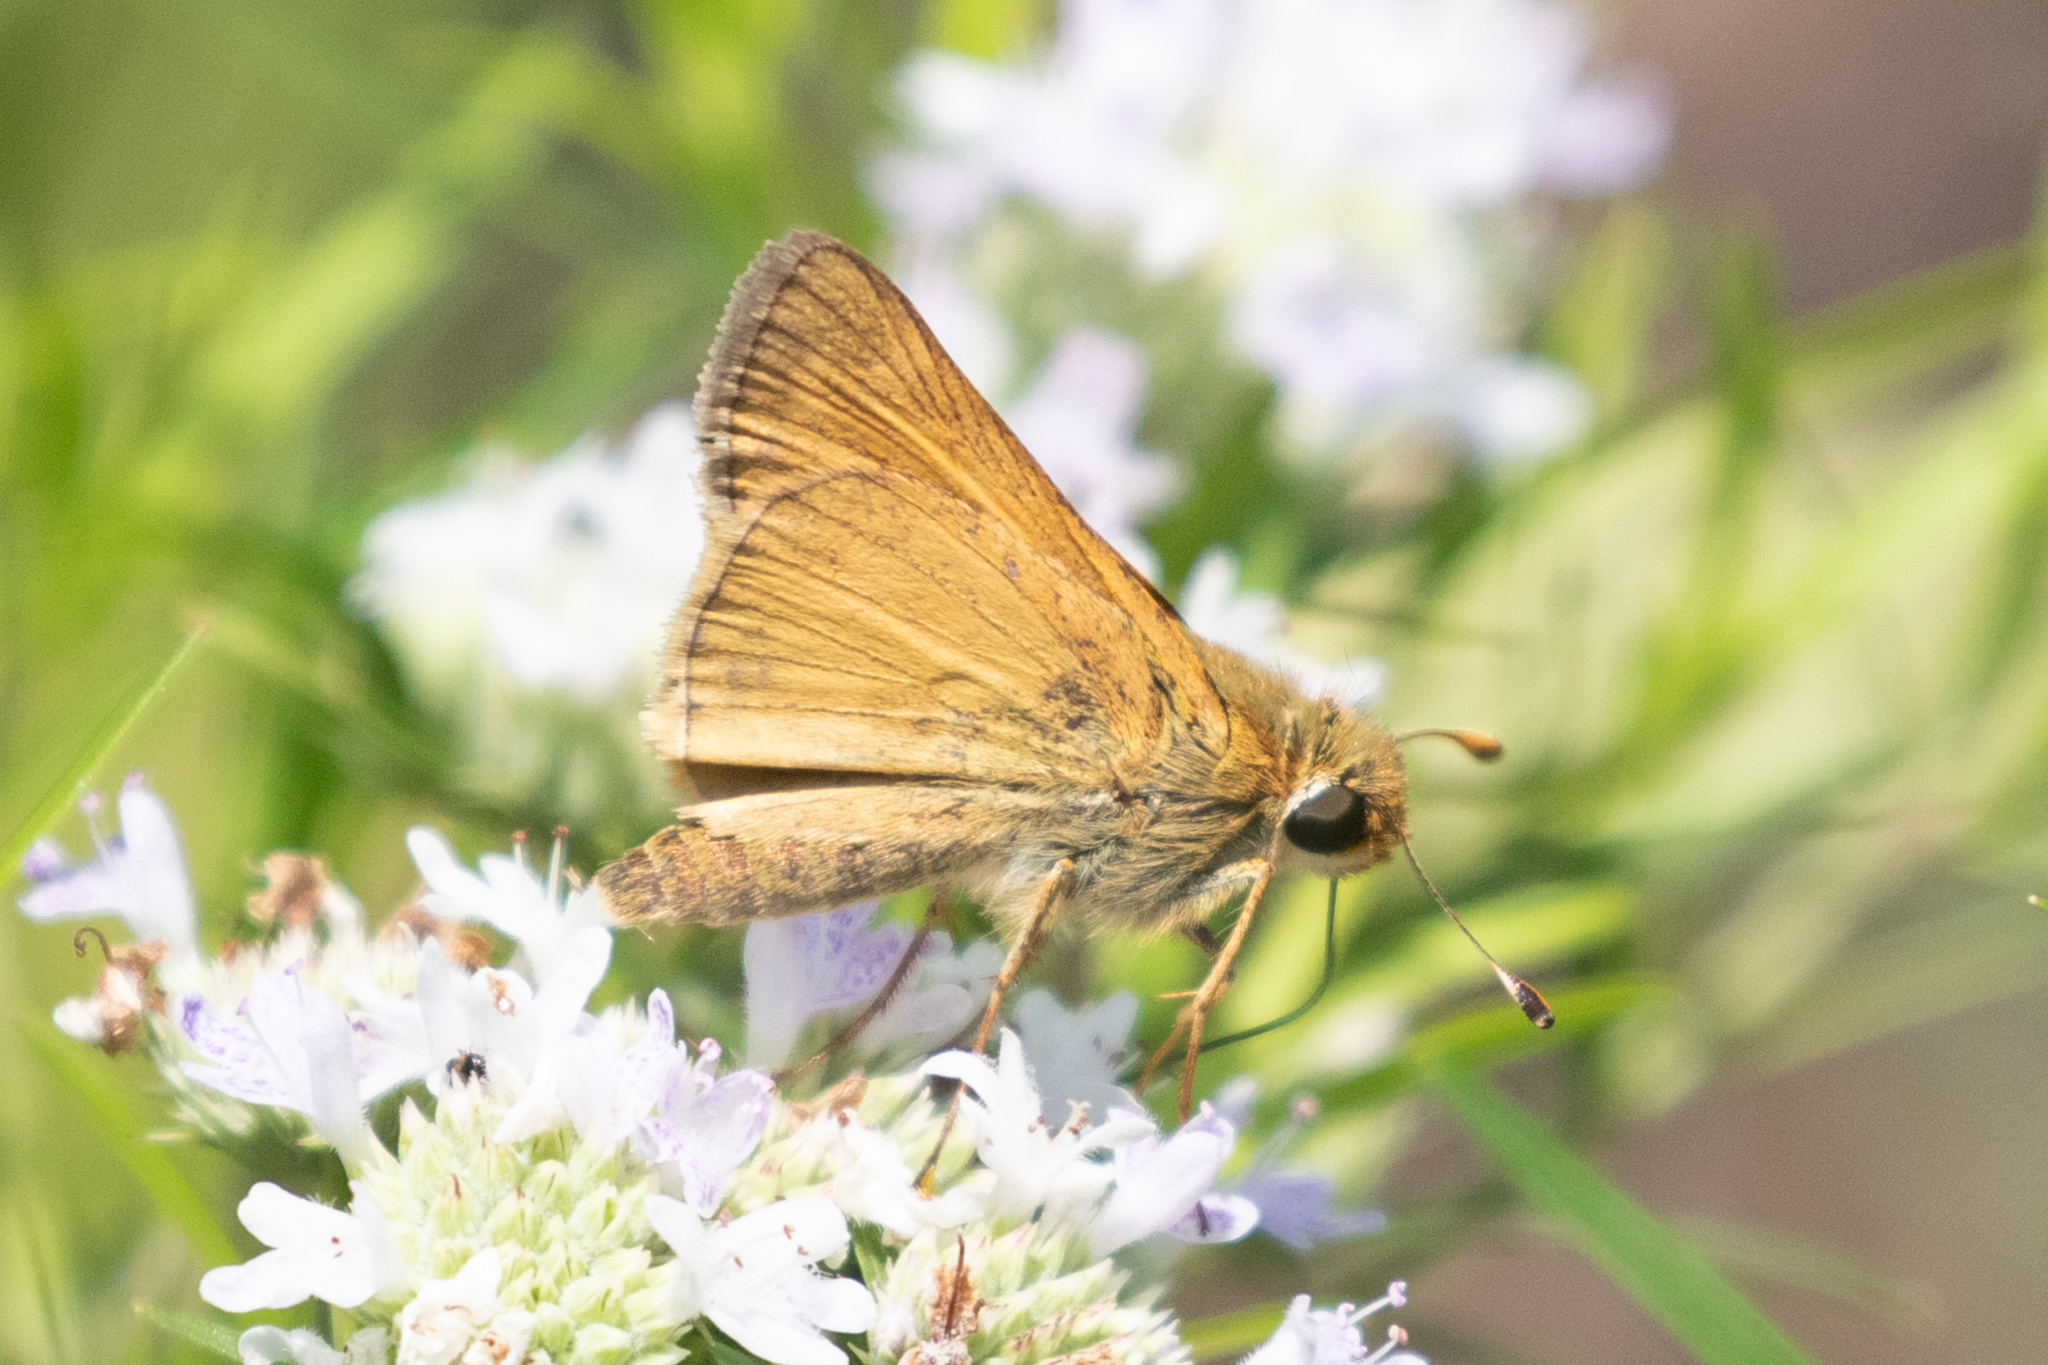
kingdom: Animalia
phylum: Arthropoda
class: Insecta
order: Lepidoptera
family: Hesperiidae
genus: Atalopedes
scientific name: Atalopedes
